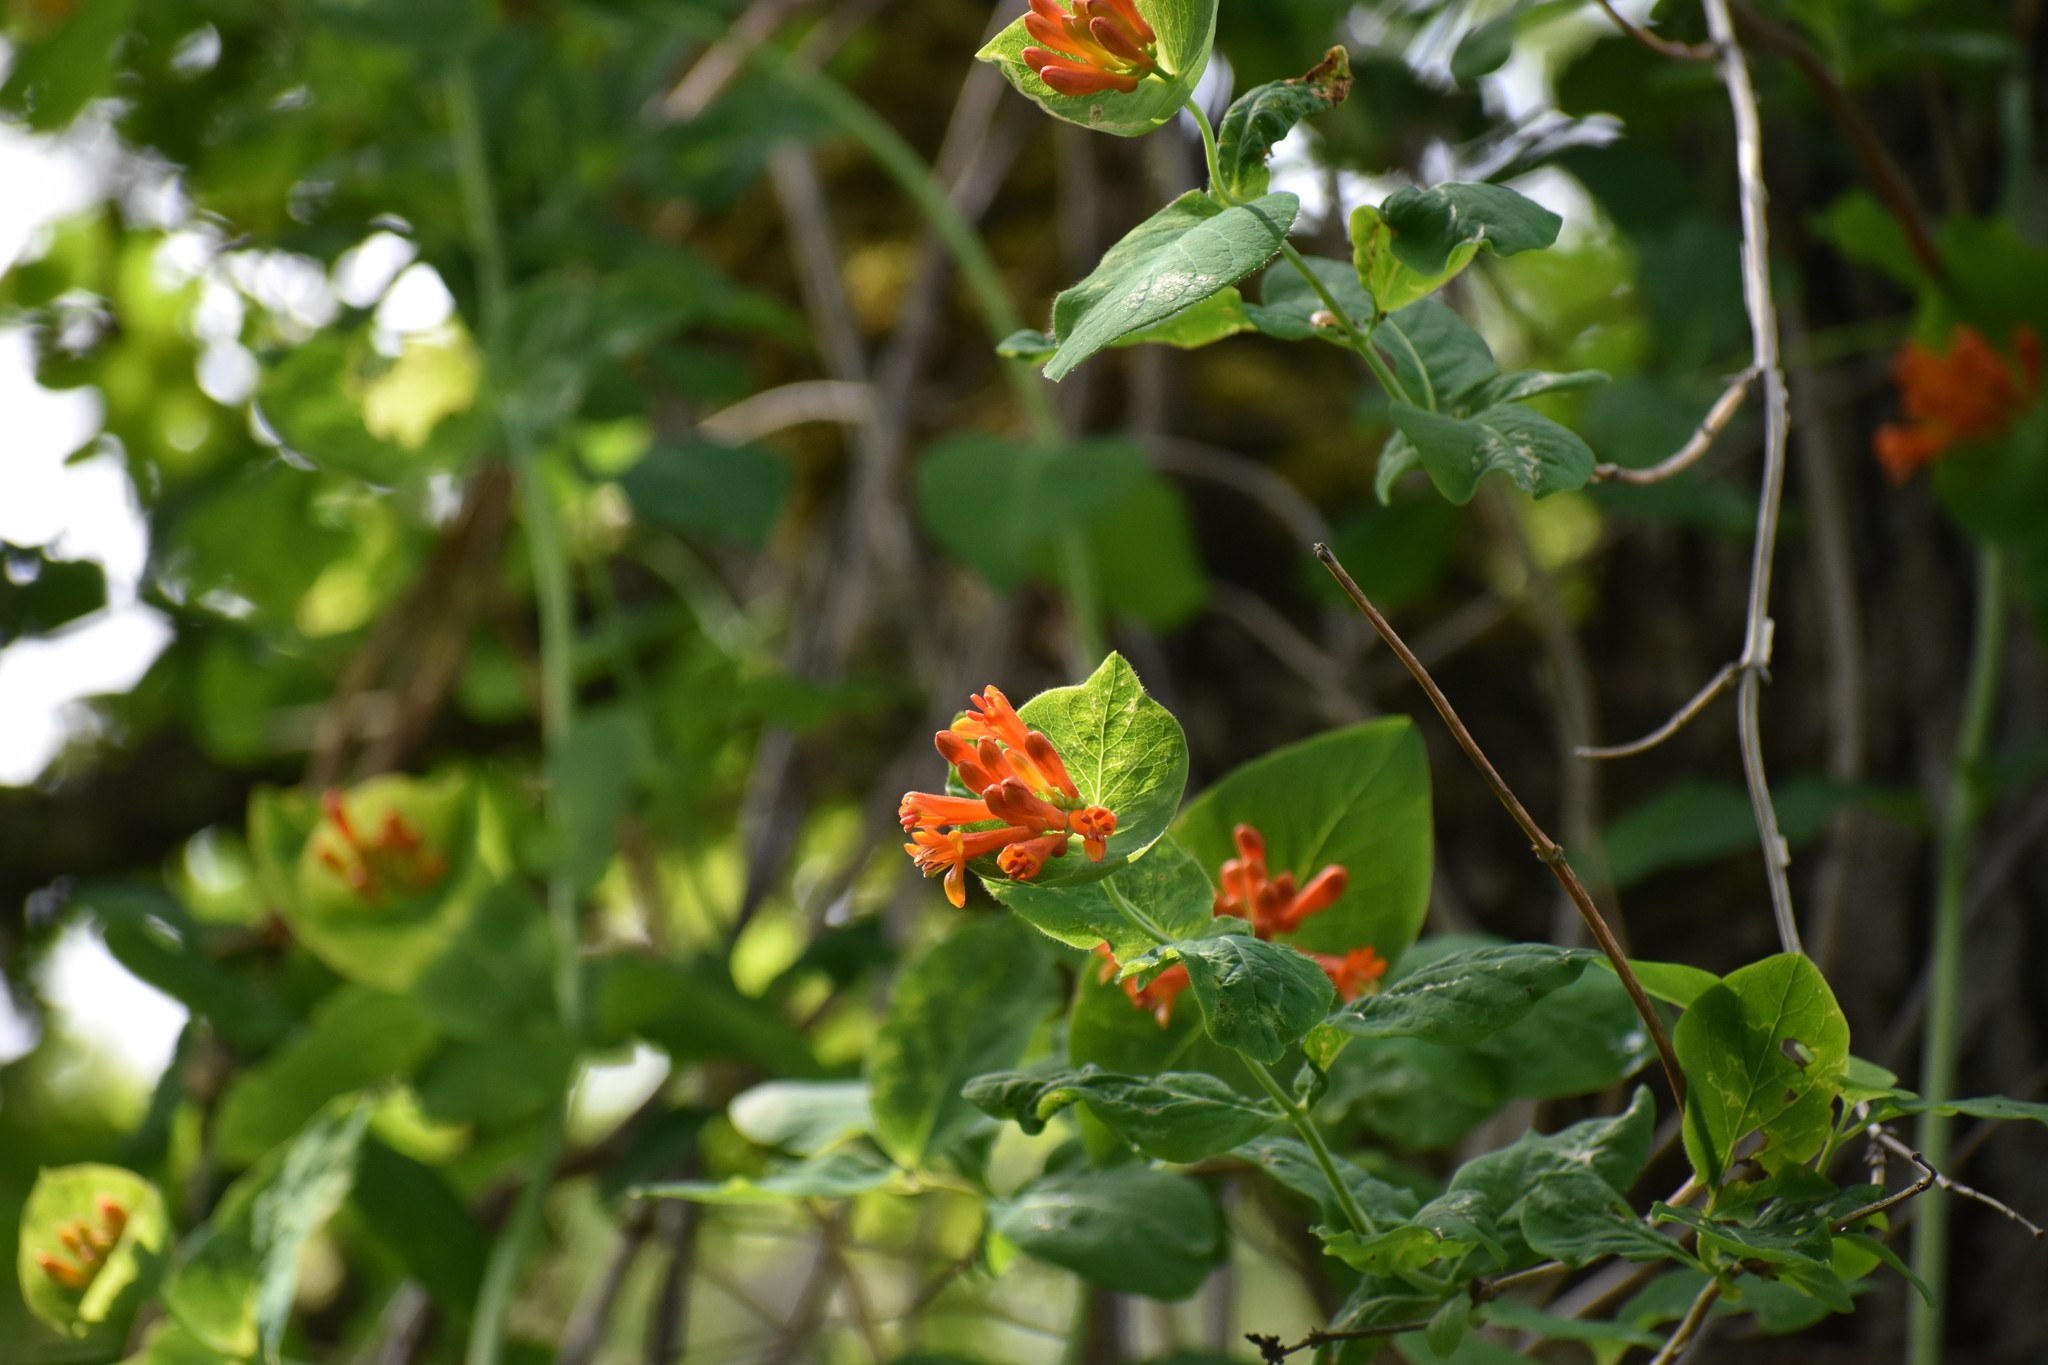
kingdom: Plantae
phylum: Tracheophyta
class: Magnoliopsida
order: Dipsacales
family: Caprifoliaceae
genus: Lonicera
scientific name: Lonicera ciliosa
